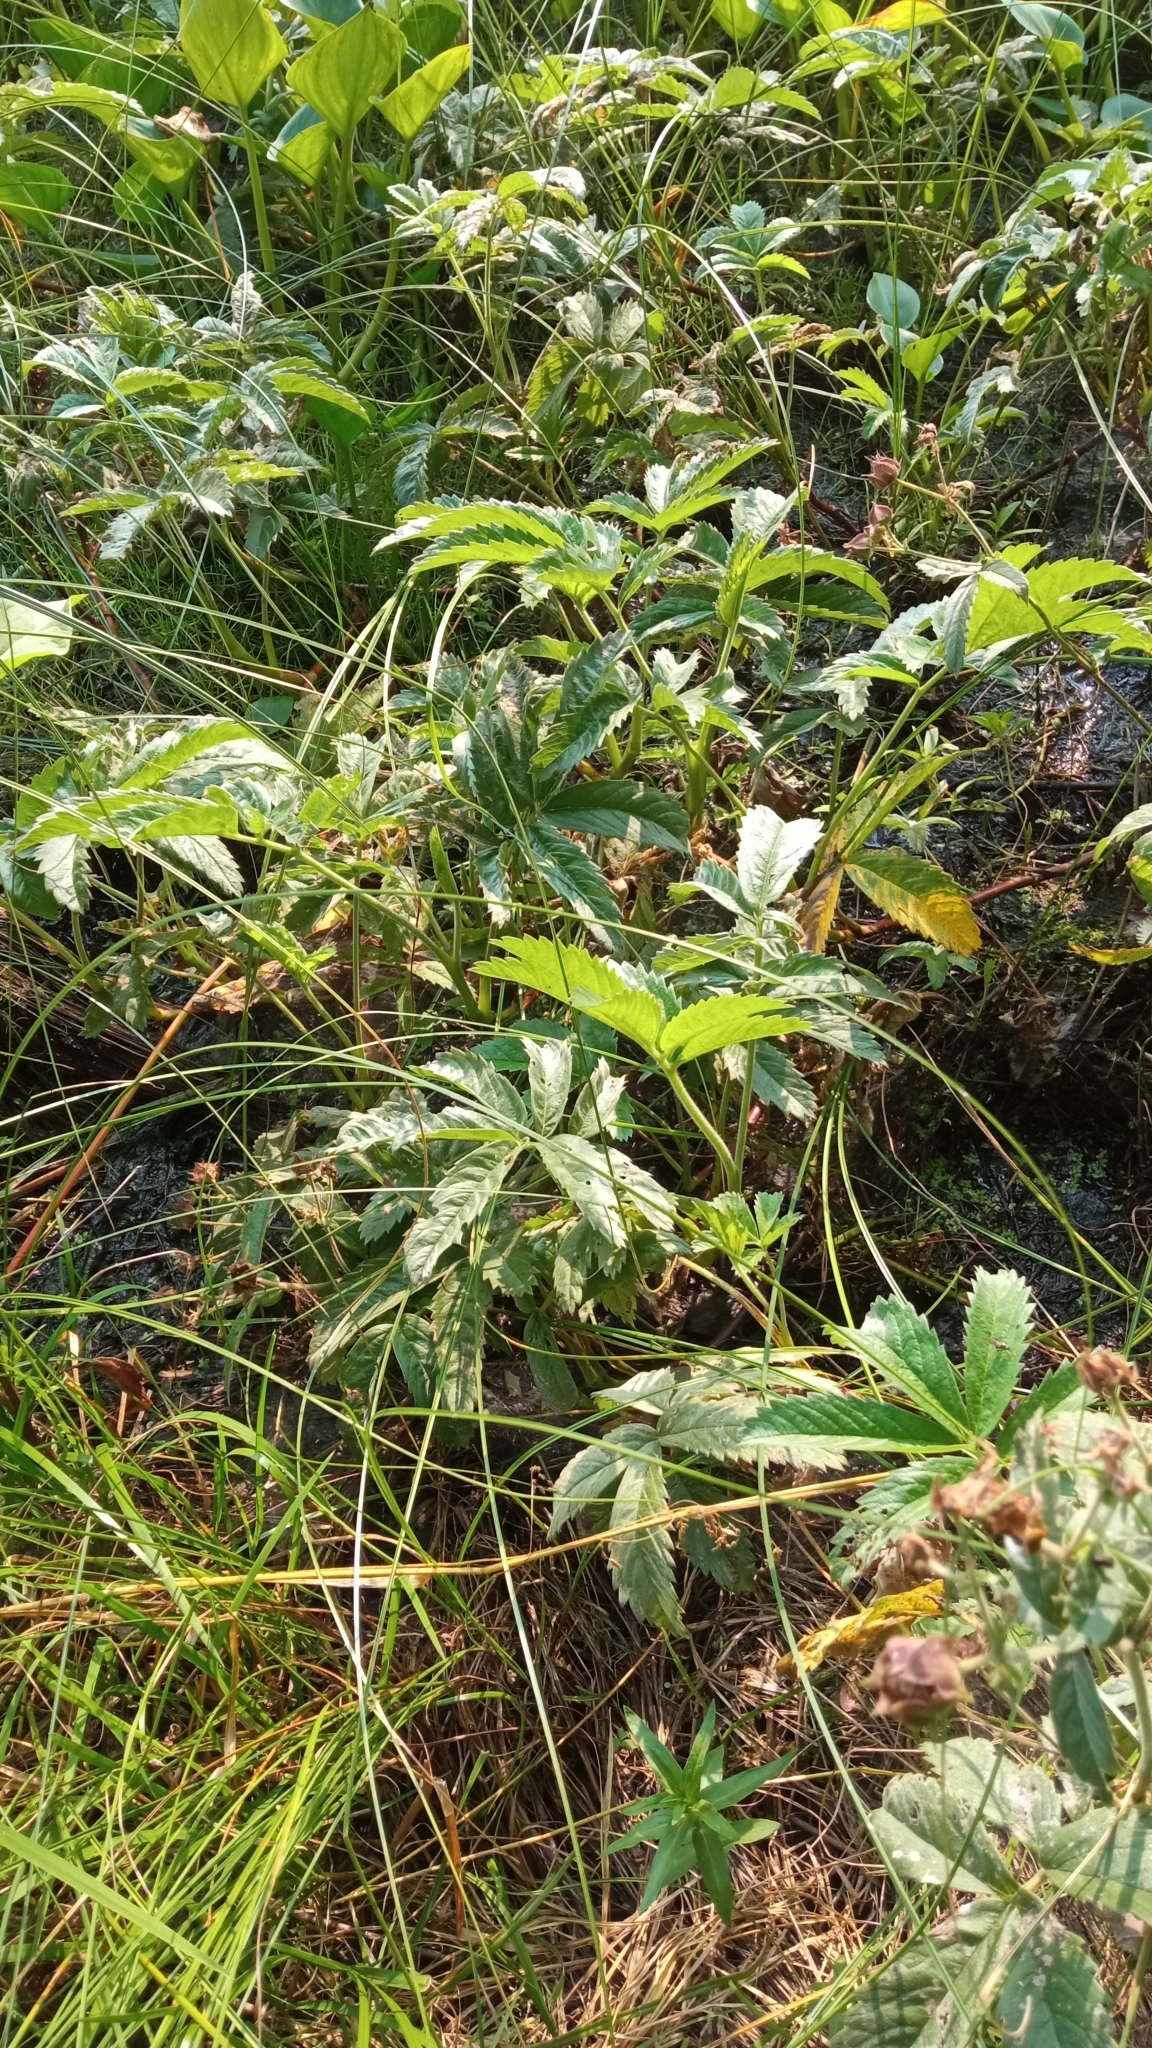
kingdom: Plantae
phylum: Tracheophyta
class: Magnoliopsida
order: Rosales
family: Rosaceae
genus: Comarum
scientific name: Comarum palustre
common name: Marsh cinquefoil
